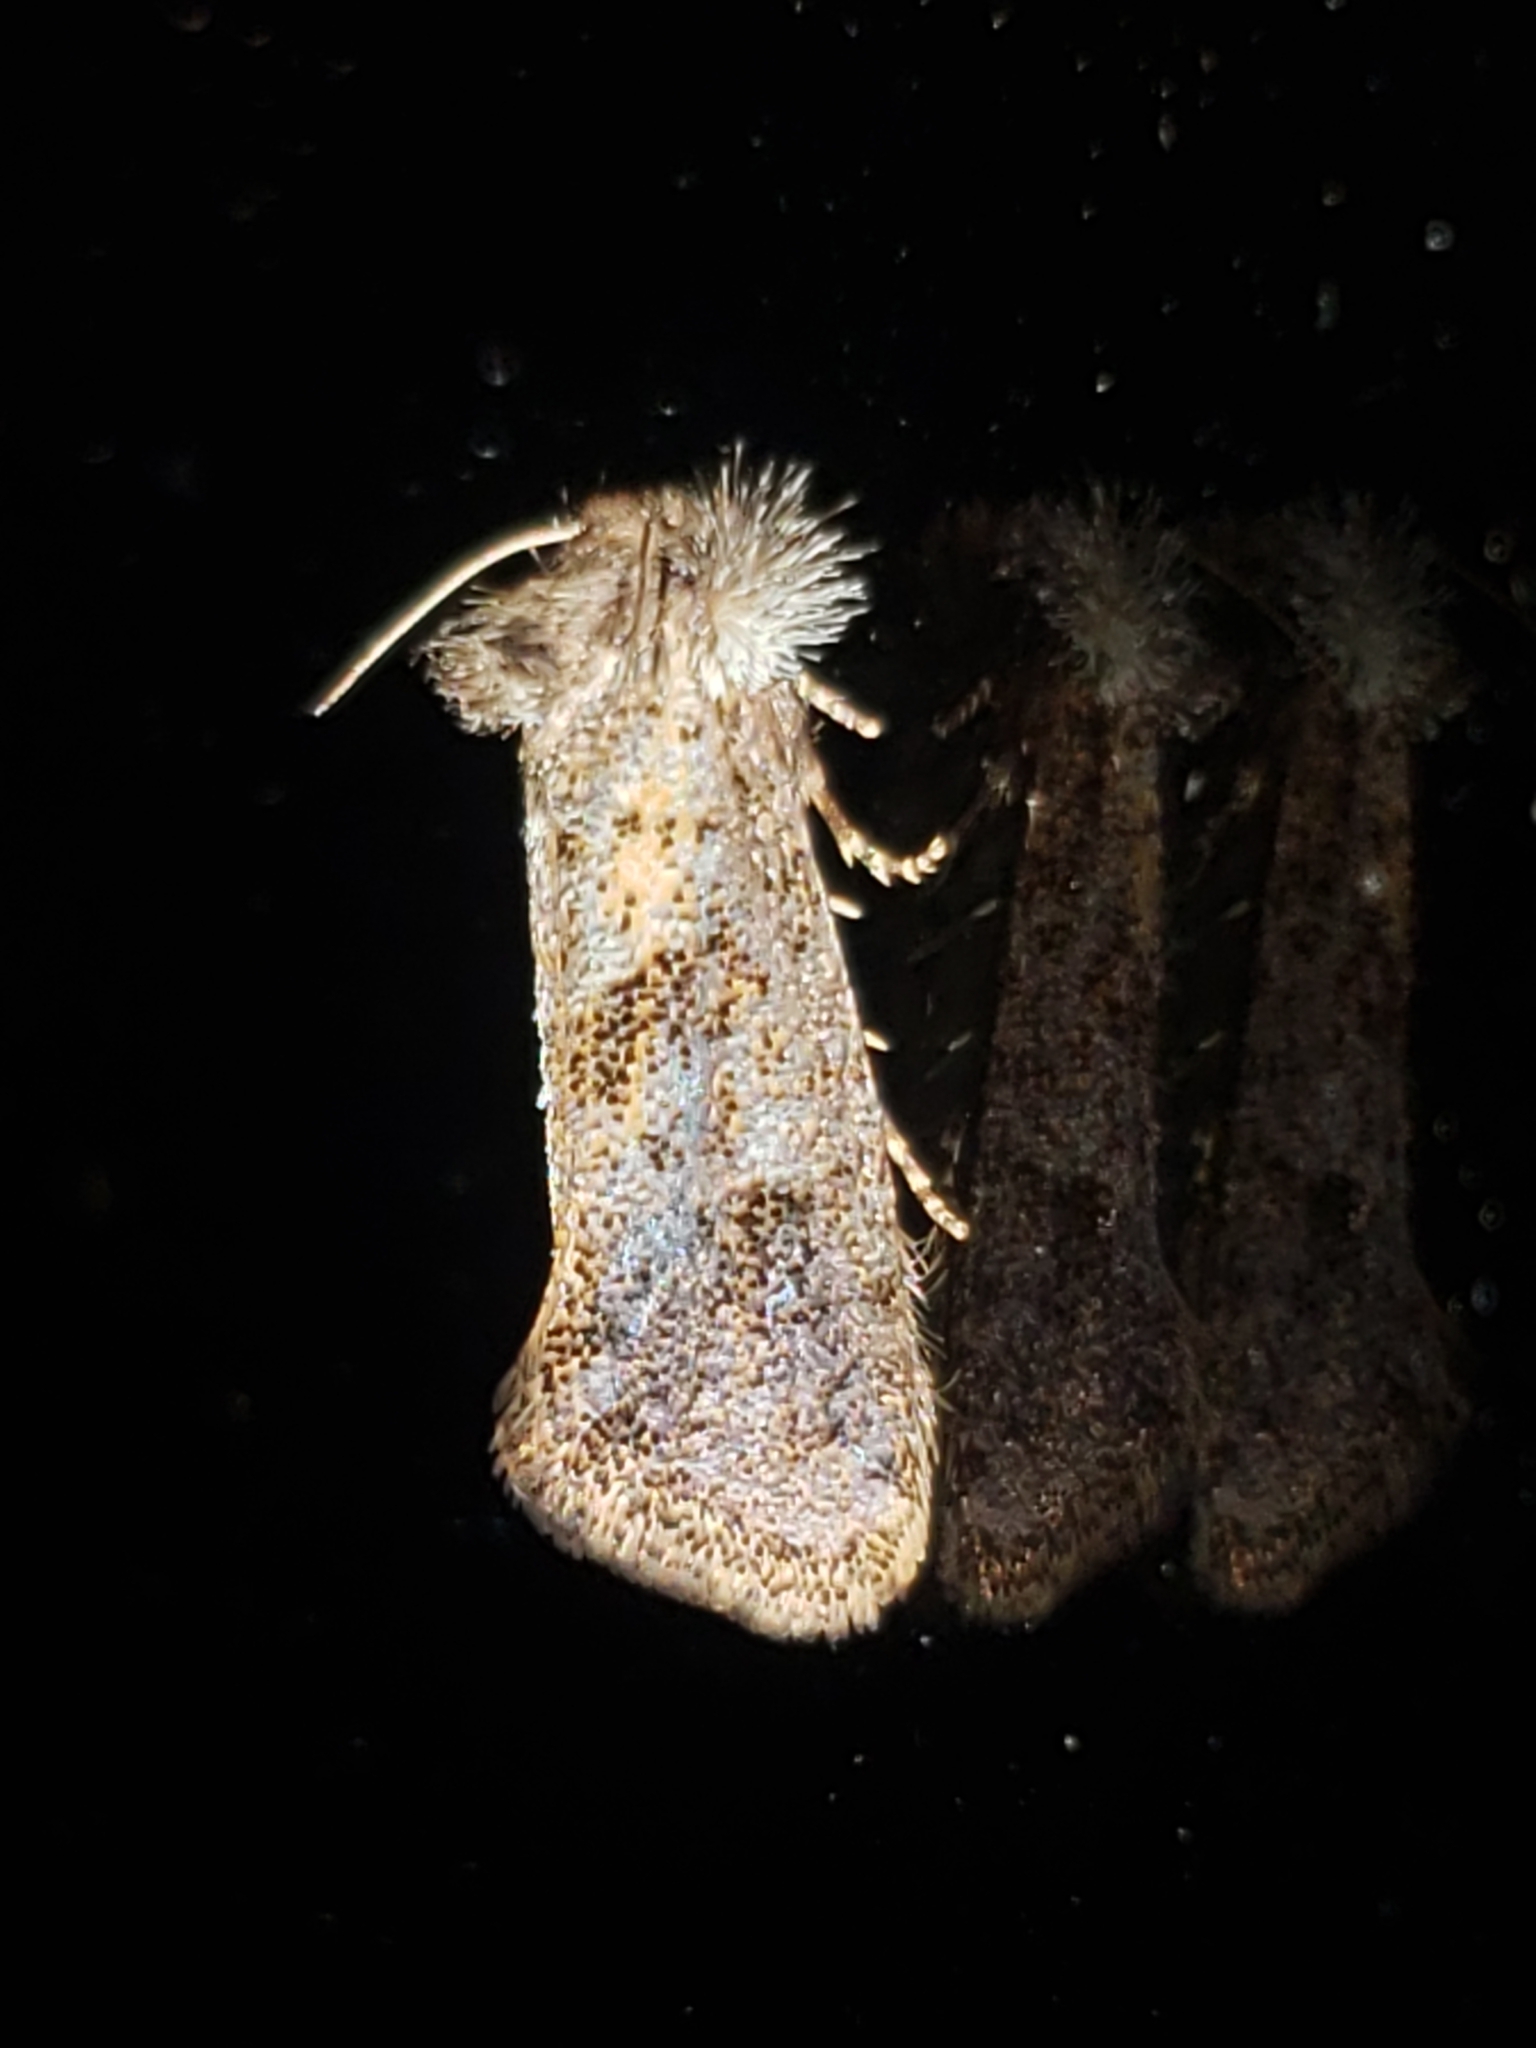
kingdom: Animalia
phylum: Arthropoda
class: Insecta
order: Lepidoptera
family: Tineidae
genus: Acrolophus
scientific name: Acrolophus panamae
